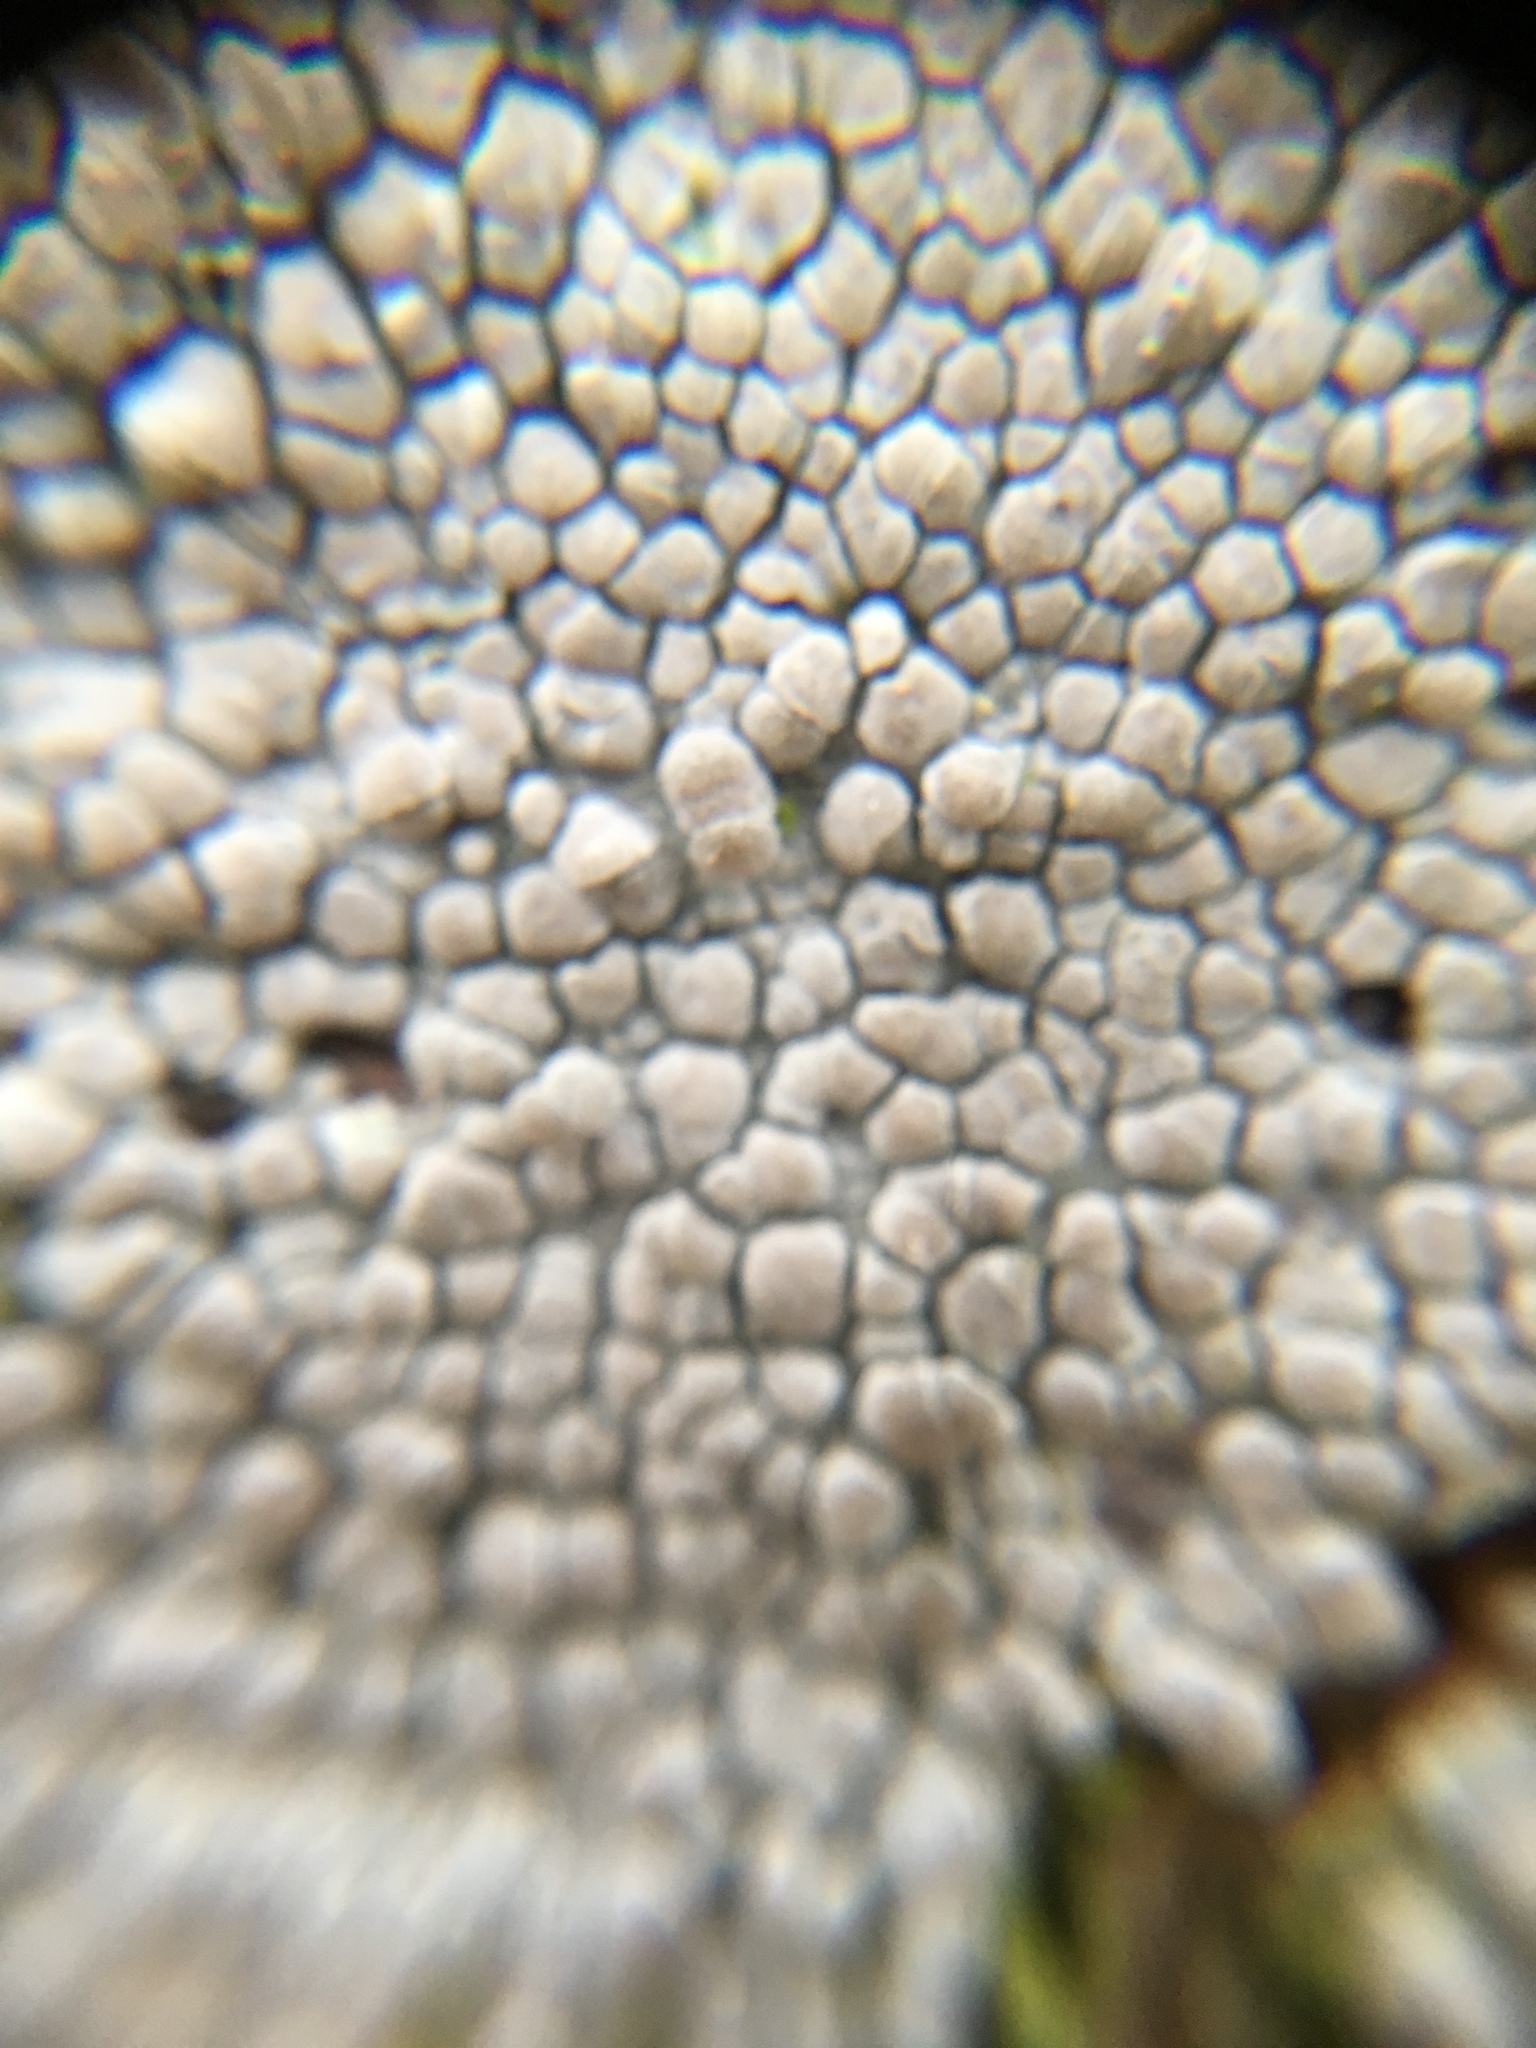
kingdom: Fungi
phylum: Ascomycota
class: Lecanoromycetes
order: Lecanorales
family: Lecanoraceae
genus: Glaucomaria
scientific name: Glaucomaria carpinea
